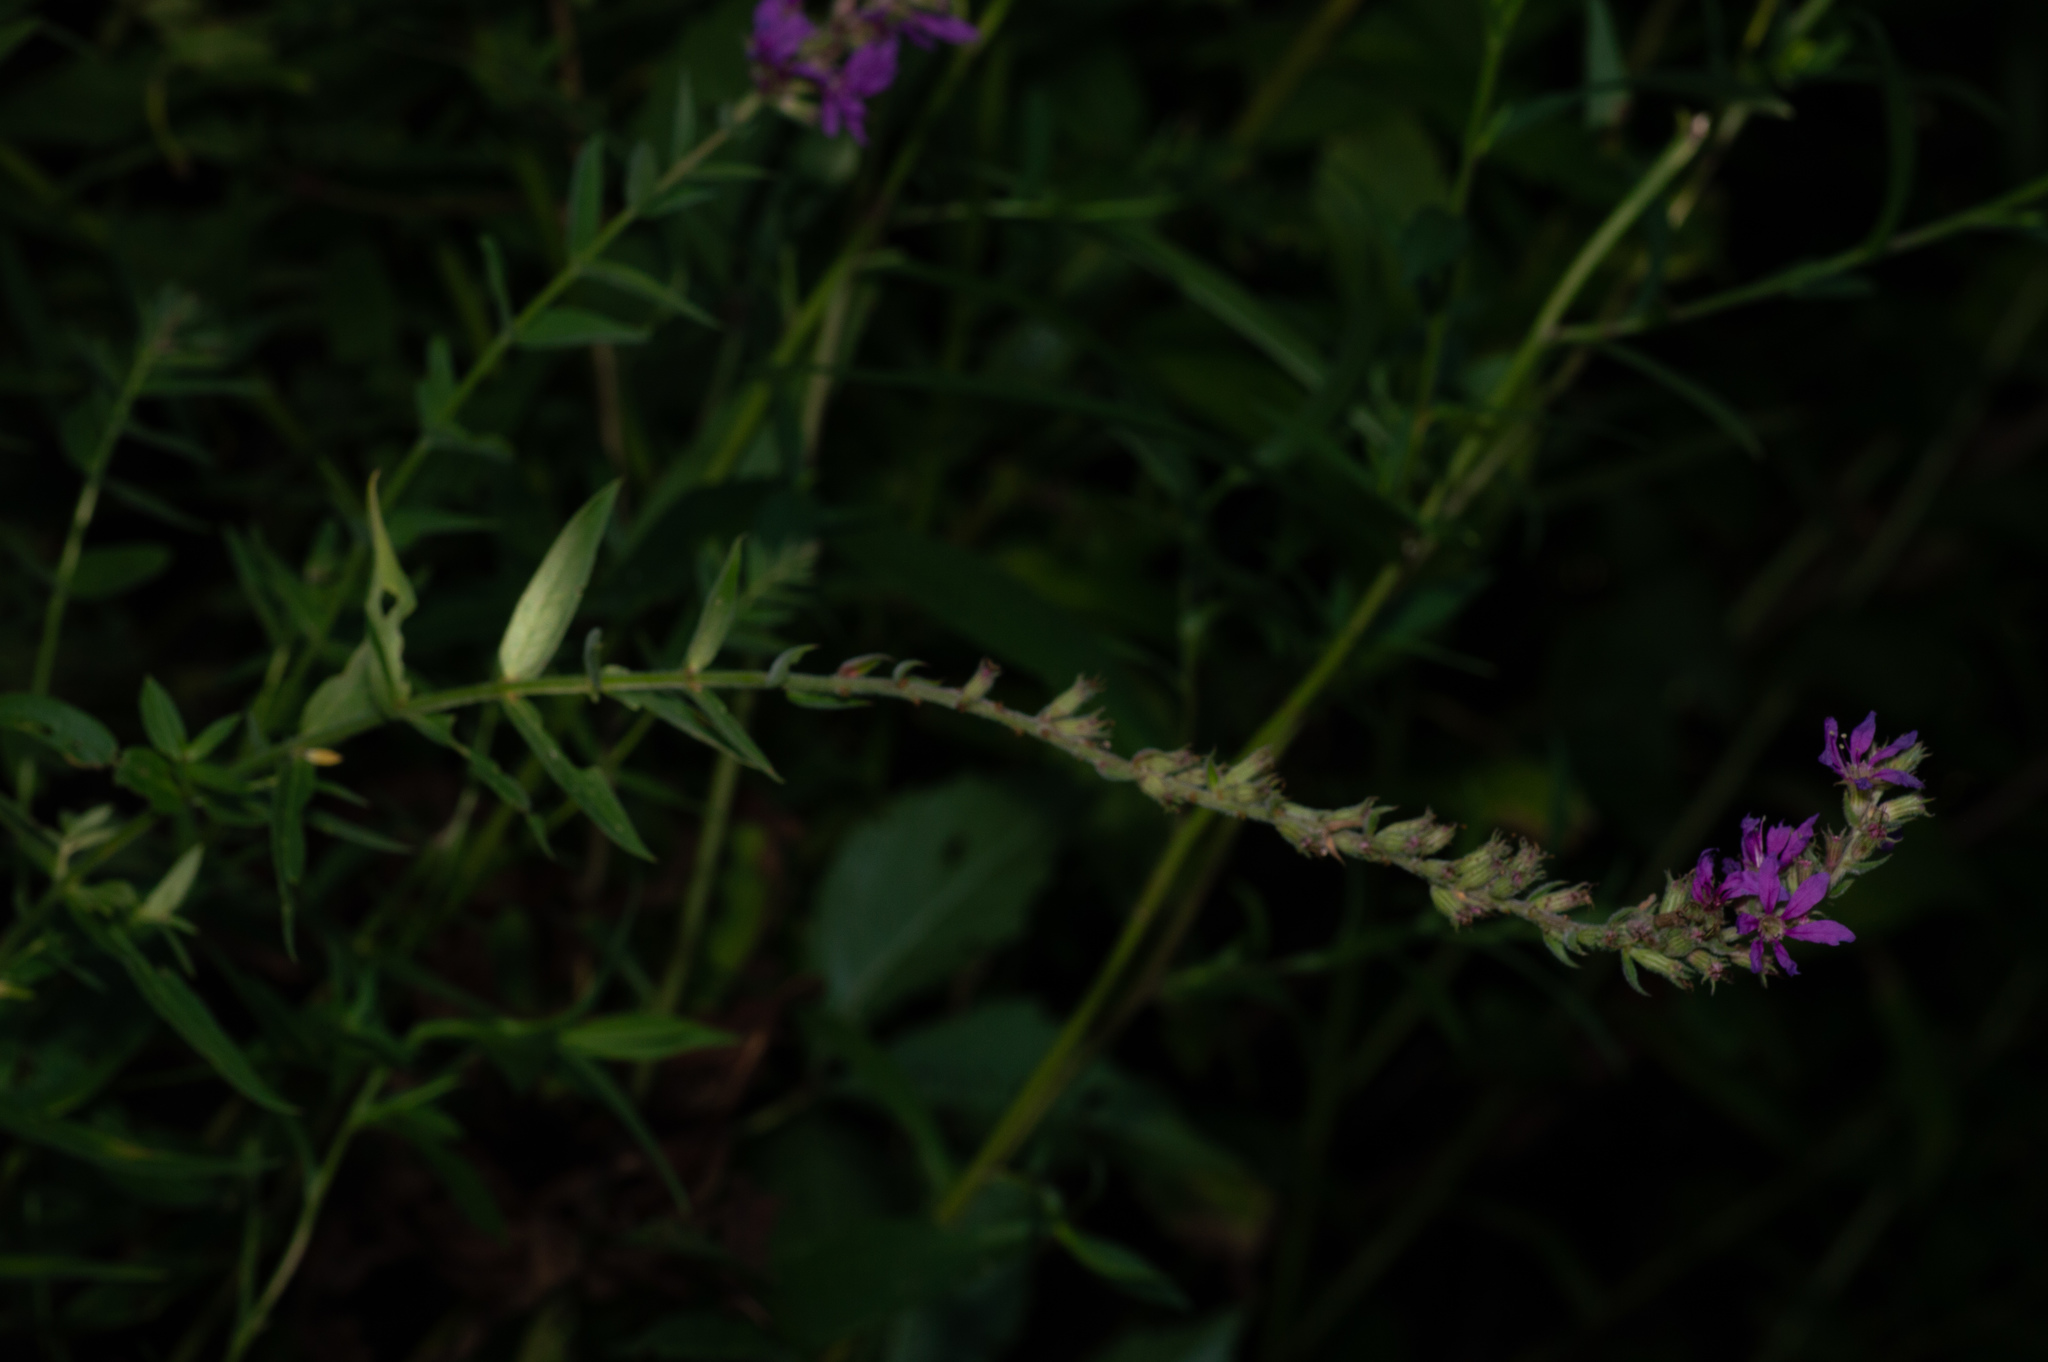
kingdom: Plantae
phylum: Tracheophyta
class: Magnoliopsida
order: Myrtales
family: Lythraceae
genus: Lythrum
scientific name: Lythrum salicaria
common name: Purple loosestrife
